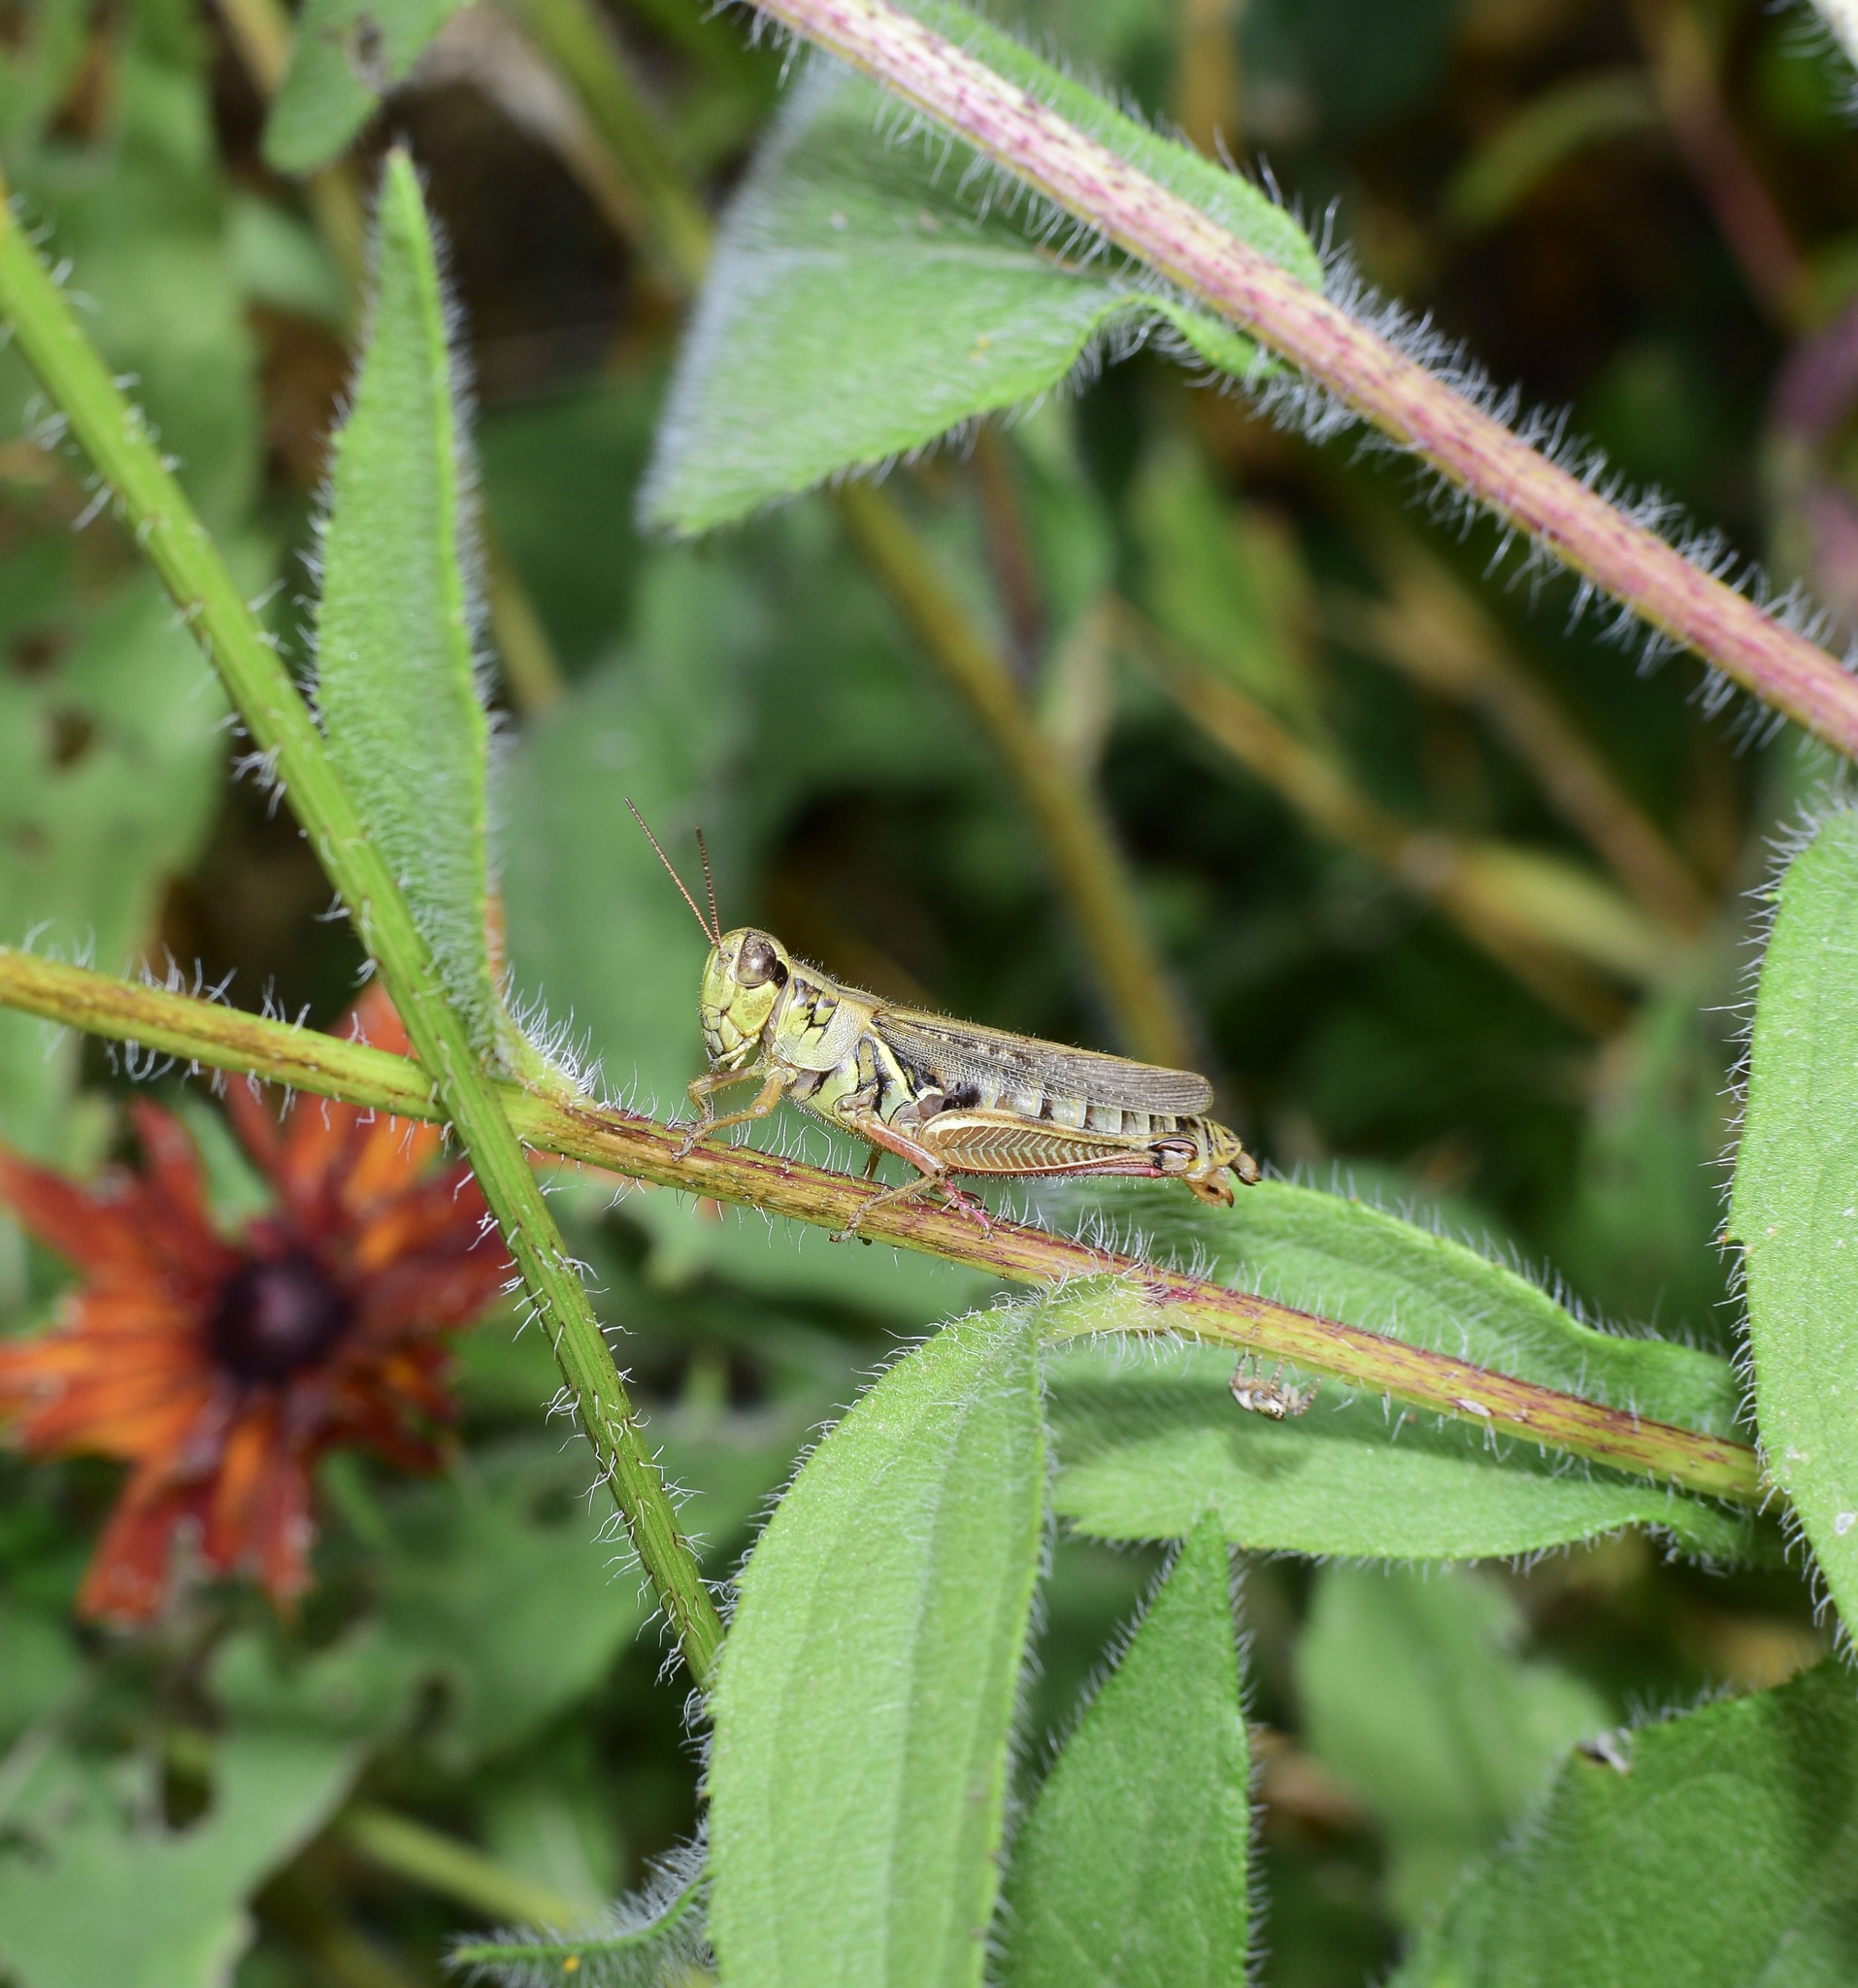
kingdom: Animalia
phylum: Arthropoda
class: Insecta
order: Orthoptera
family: Acrididae
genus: Melanoplus
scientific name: Melanoplus femurrubrum
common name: Red-legged grasshopper
